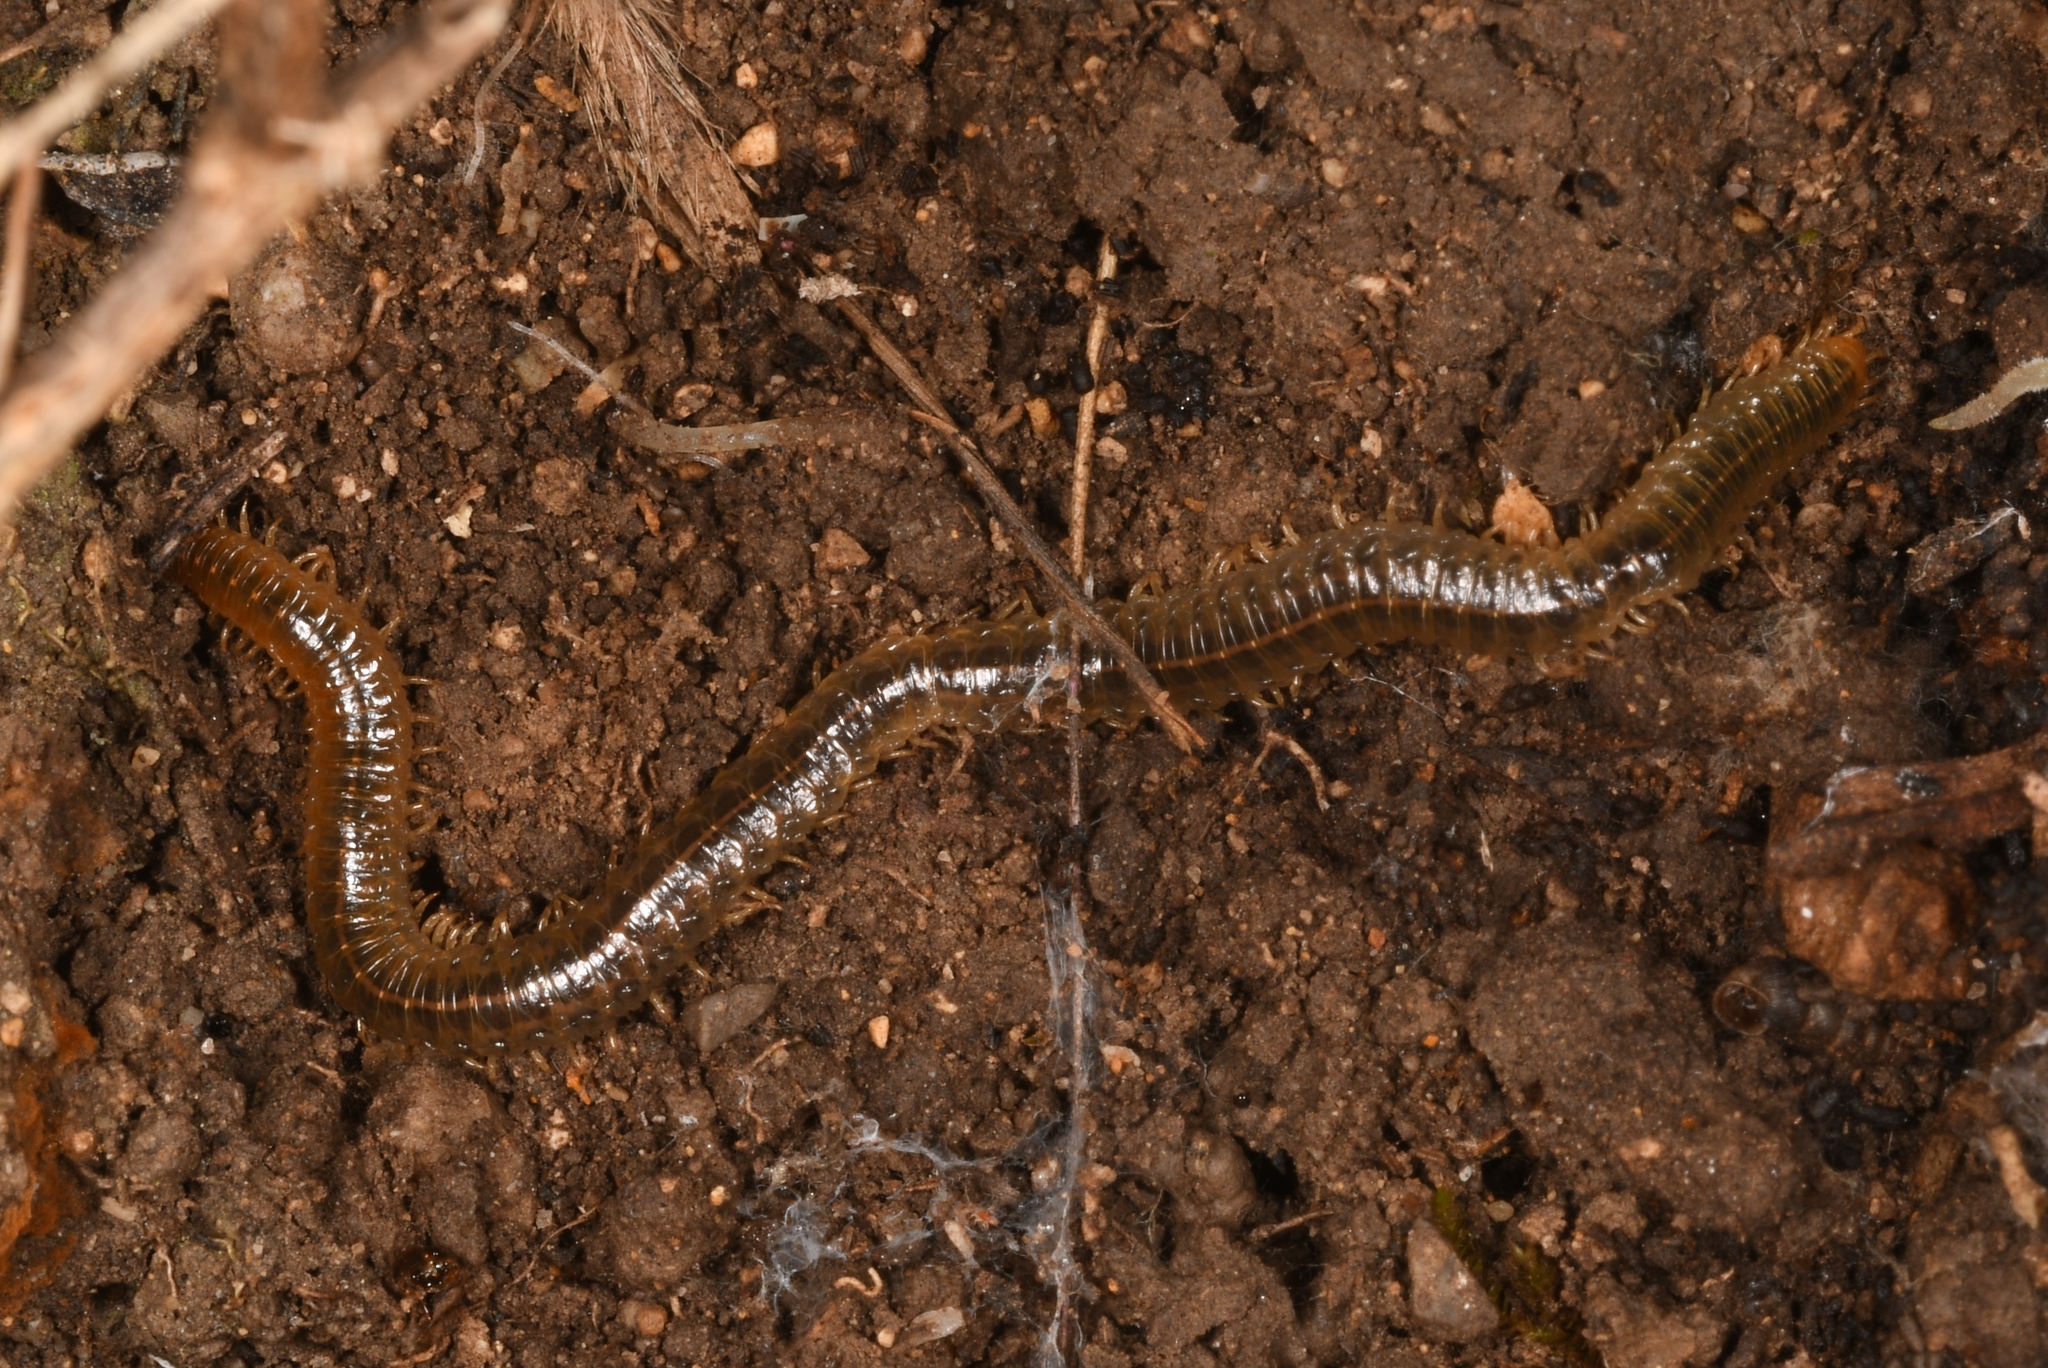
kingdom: Animalia
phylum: Arthropoda
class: Chilopoda
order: Geophilomorpha
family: Dignathodontidae
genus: Henia
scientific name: Henia vesuviana
